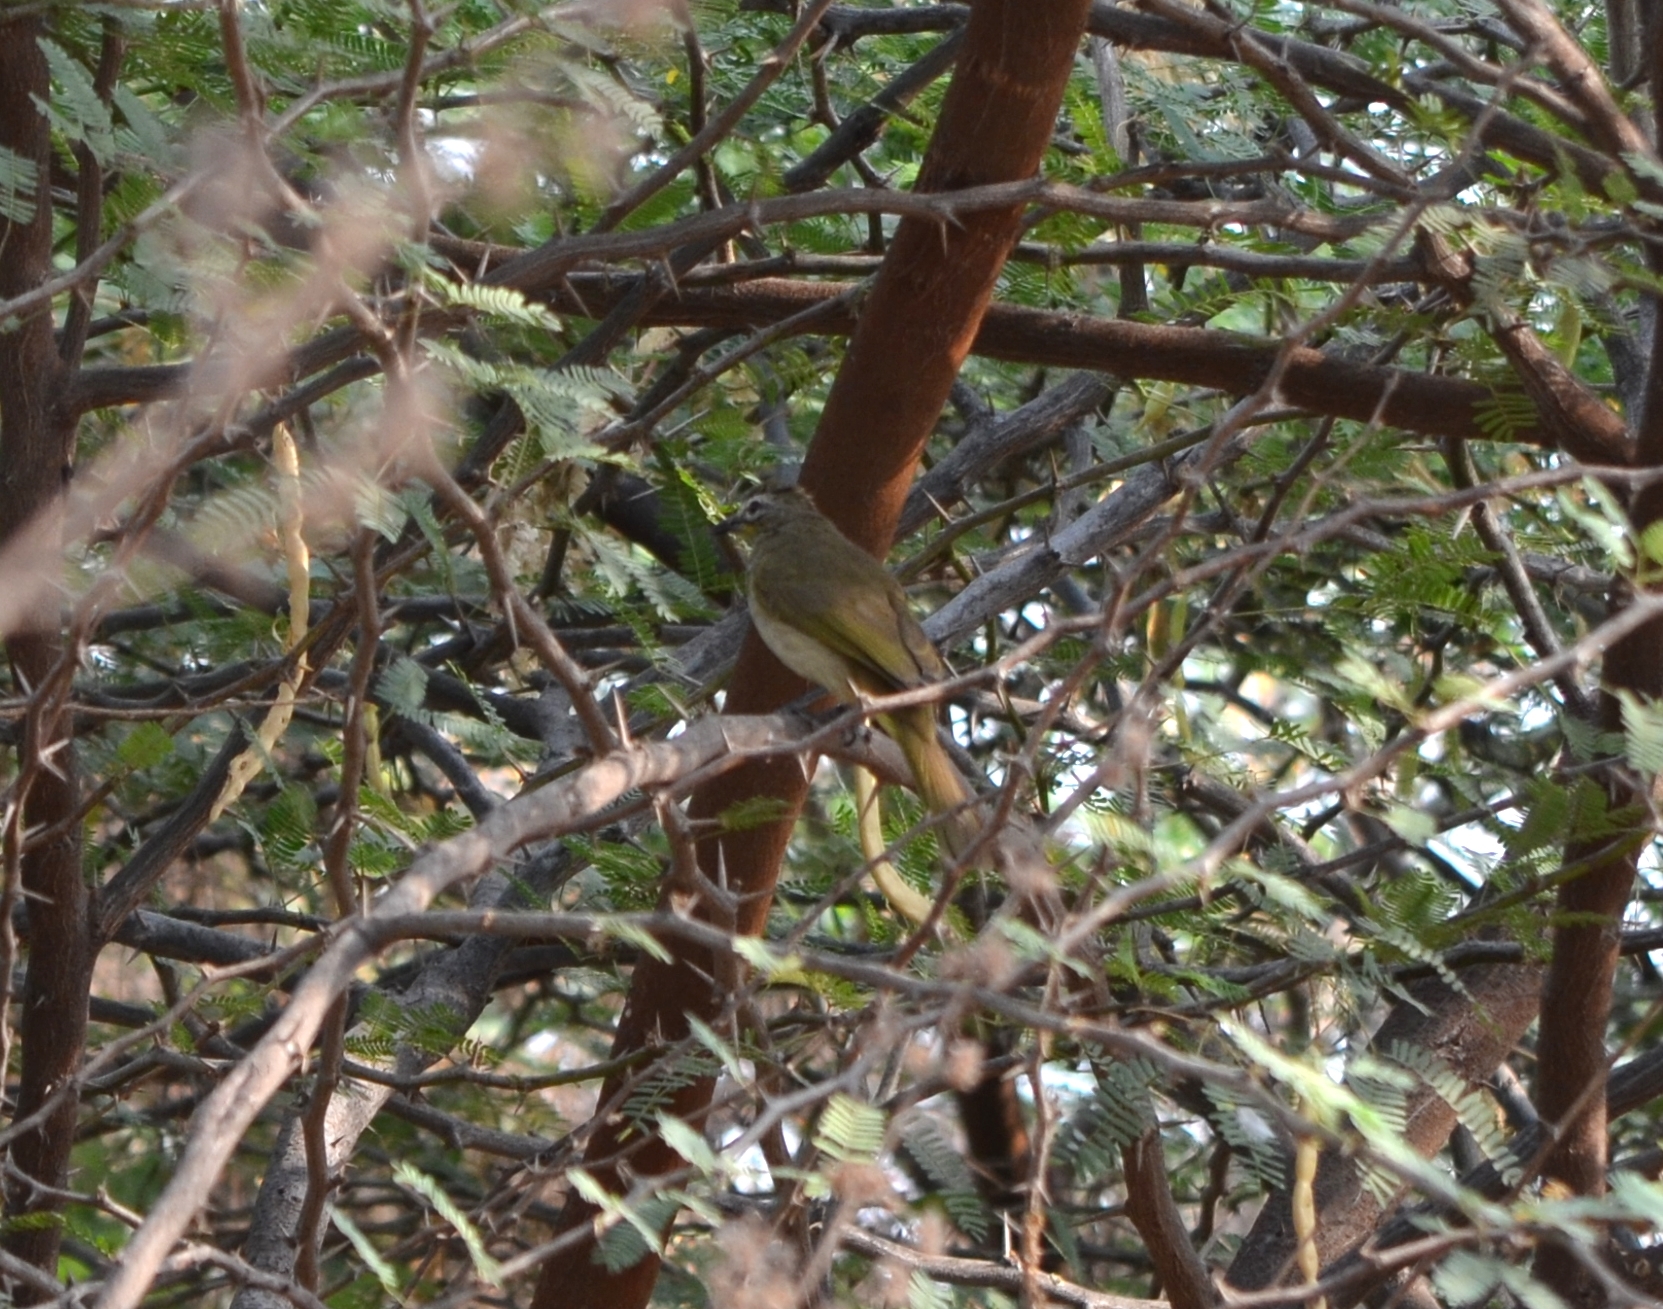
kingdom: Animalia
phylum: Chordata
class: Aves
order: Passeriformes
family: Pycnonotidae
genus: Pycnonotus
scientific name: Pycnonotus luteolus
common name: White-browed bulbul
